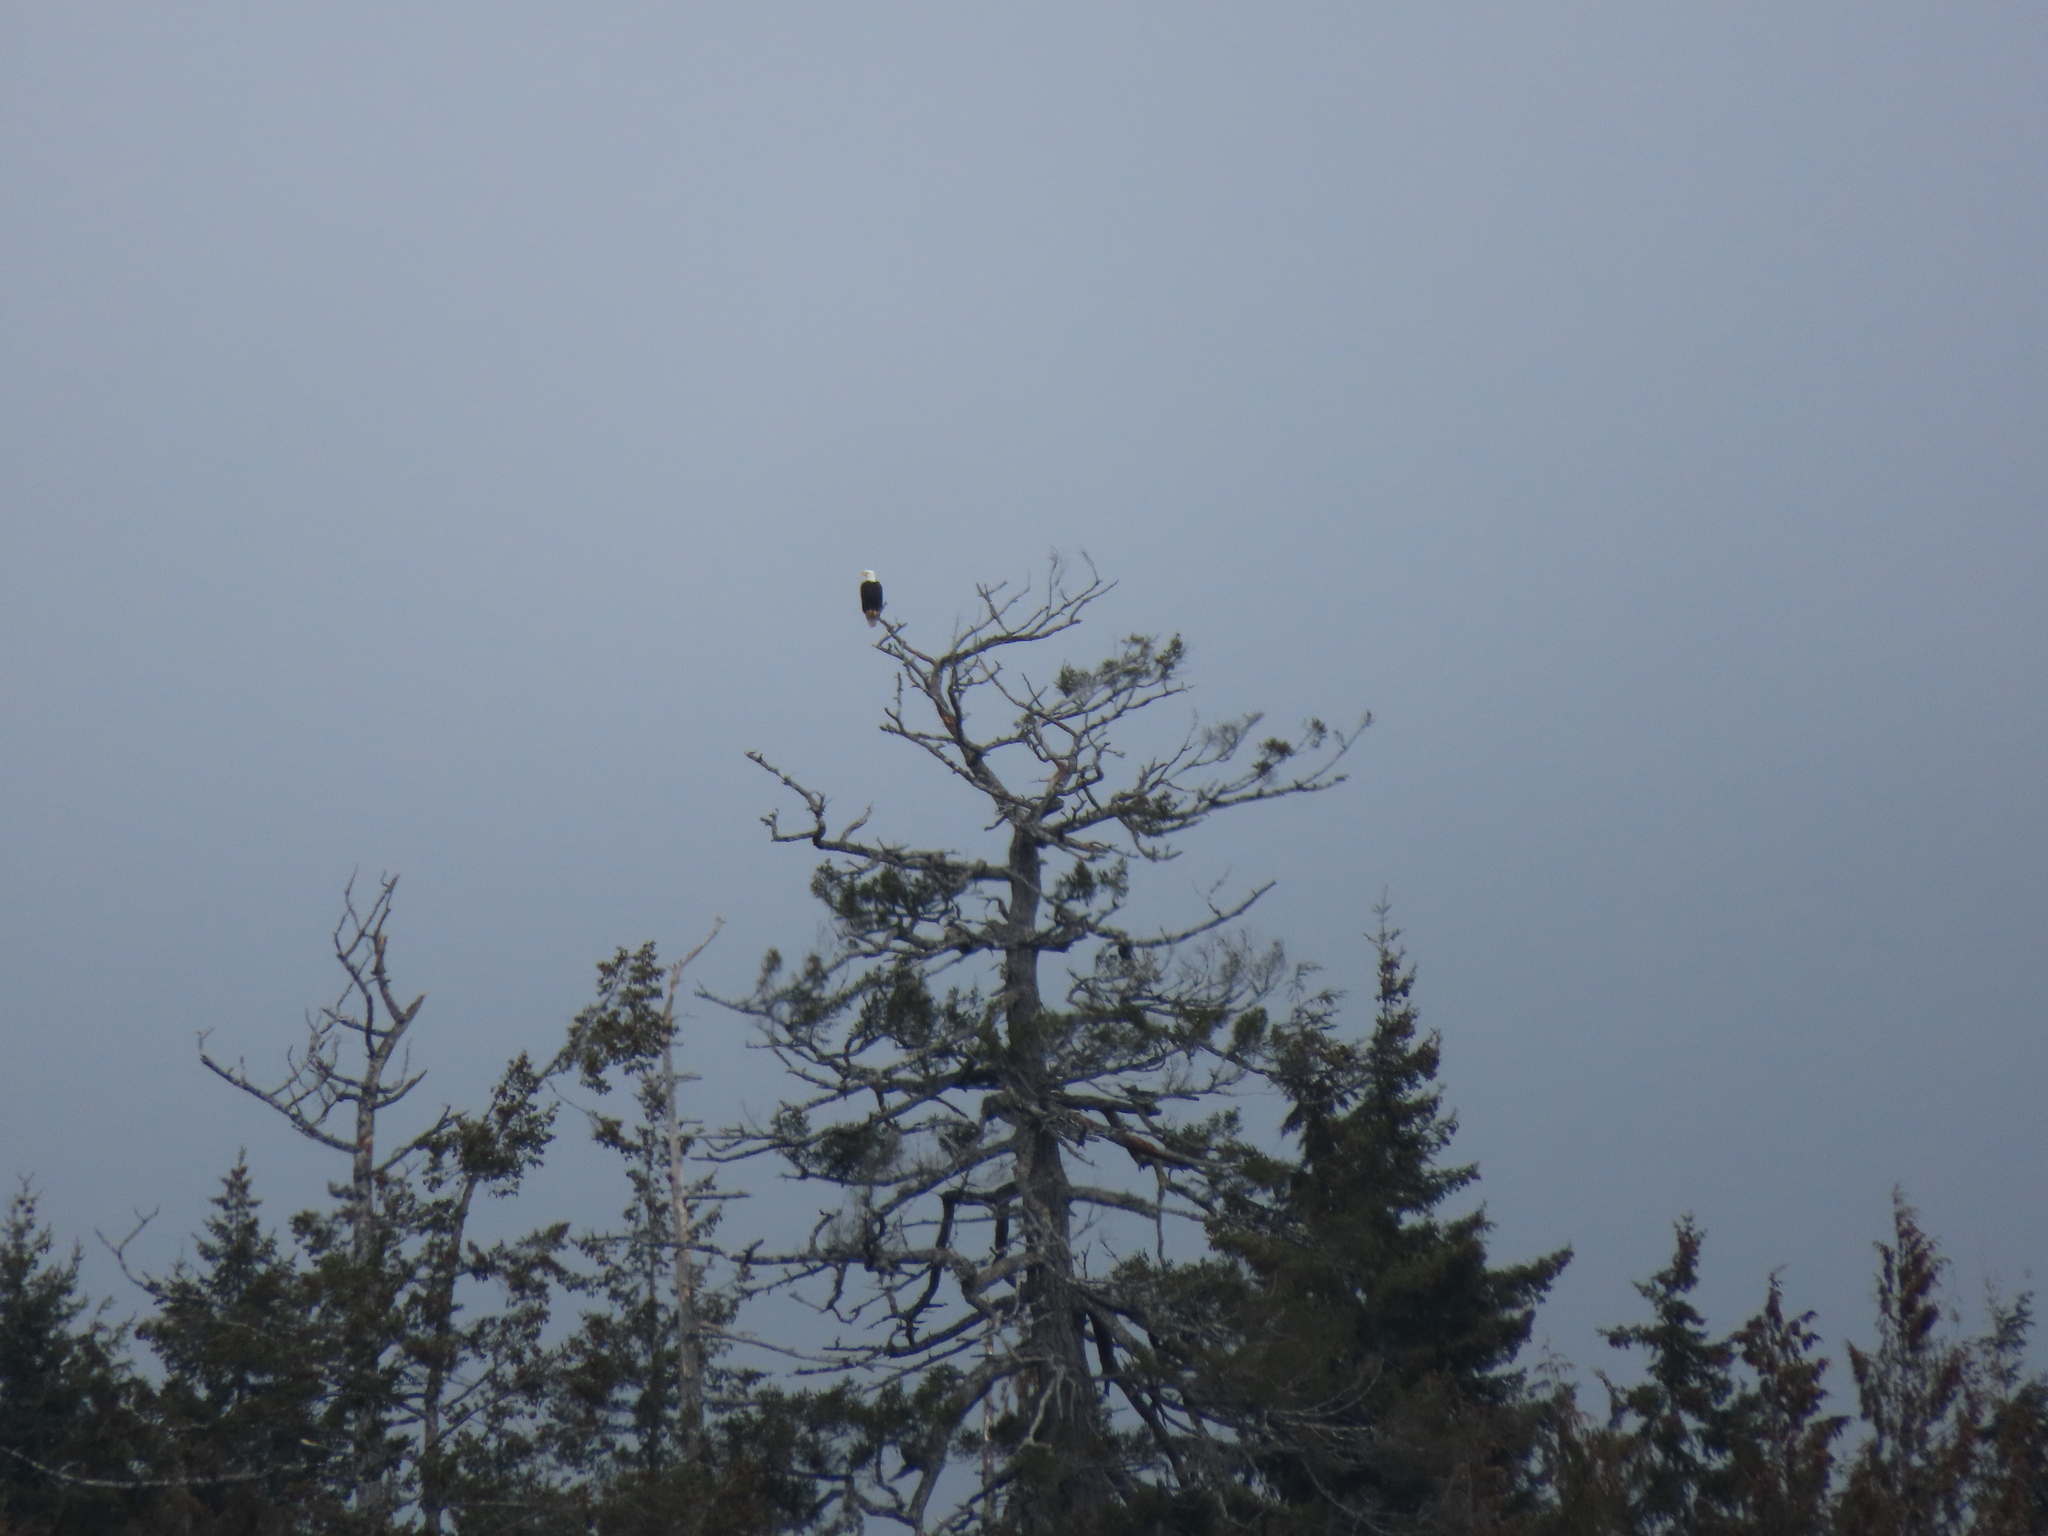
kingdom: Animalia
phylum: Chordata
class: Aves
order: Accipitriformes
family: Accipitridae
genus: Haliaeetus
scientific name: Haliaeetus leucocephalus
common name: Bald eagle
